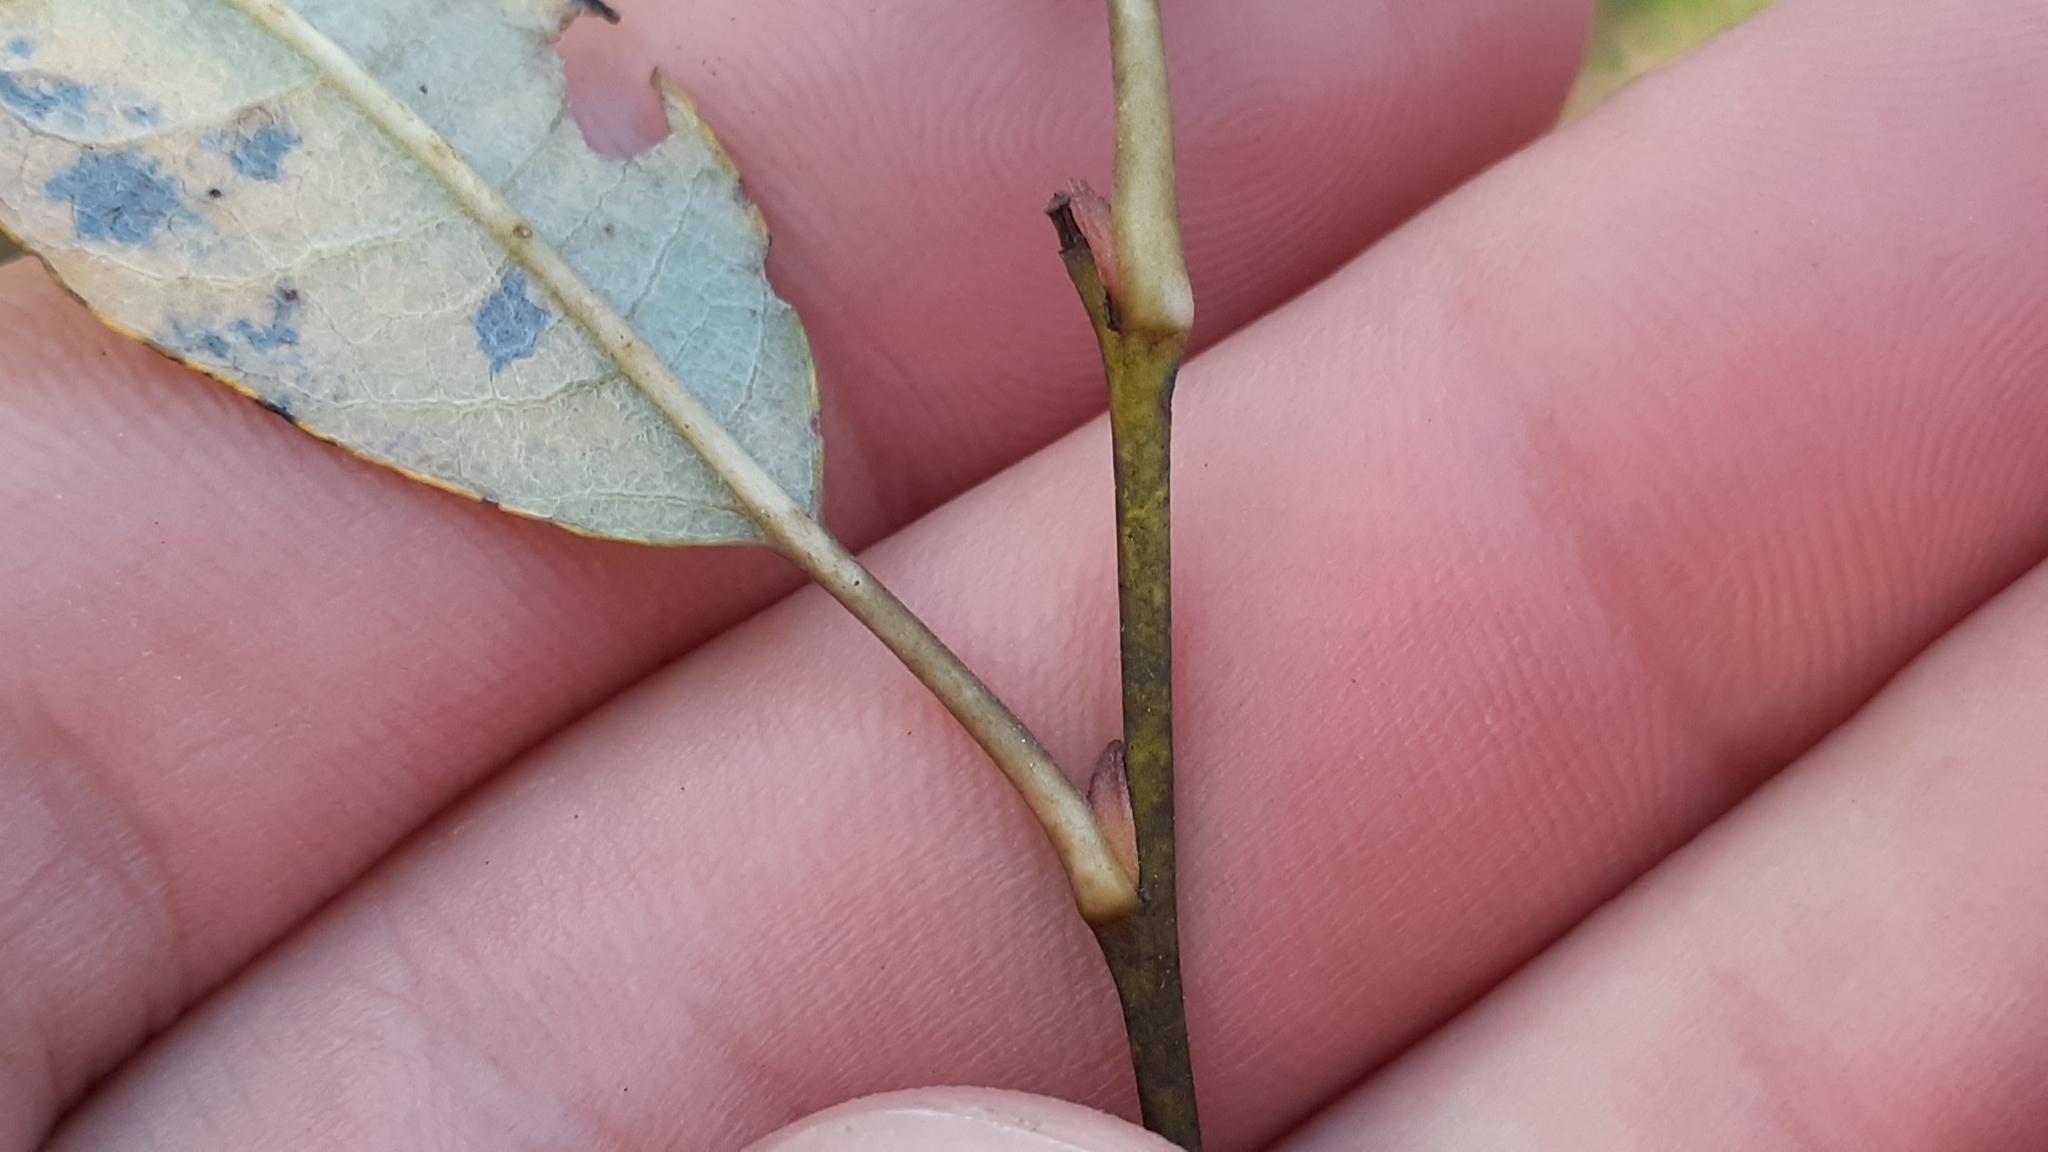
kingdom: Plantae
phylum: Tracheophyta
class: Magnoliopsida
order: Malpighiales
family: Salicaceae
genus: Salix
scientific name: Salix humilis
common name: Prairie willow
